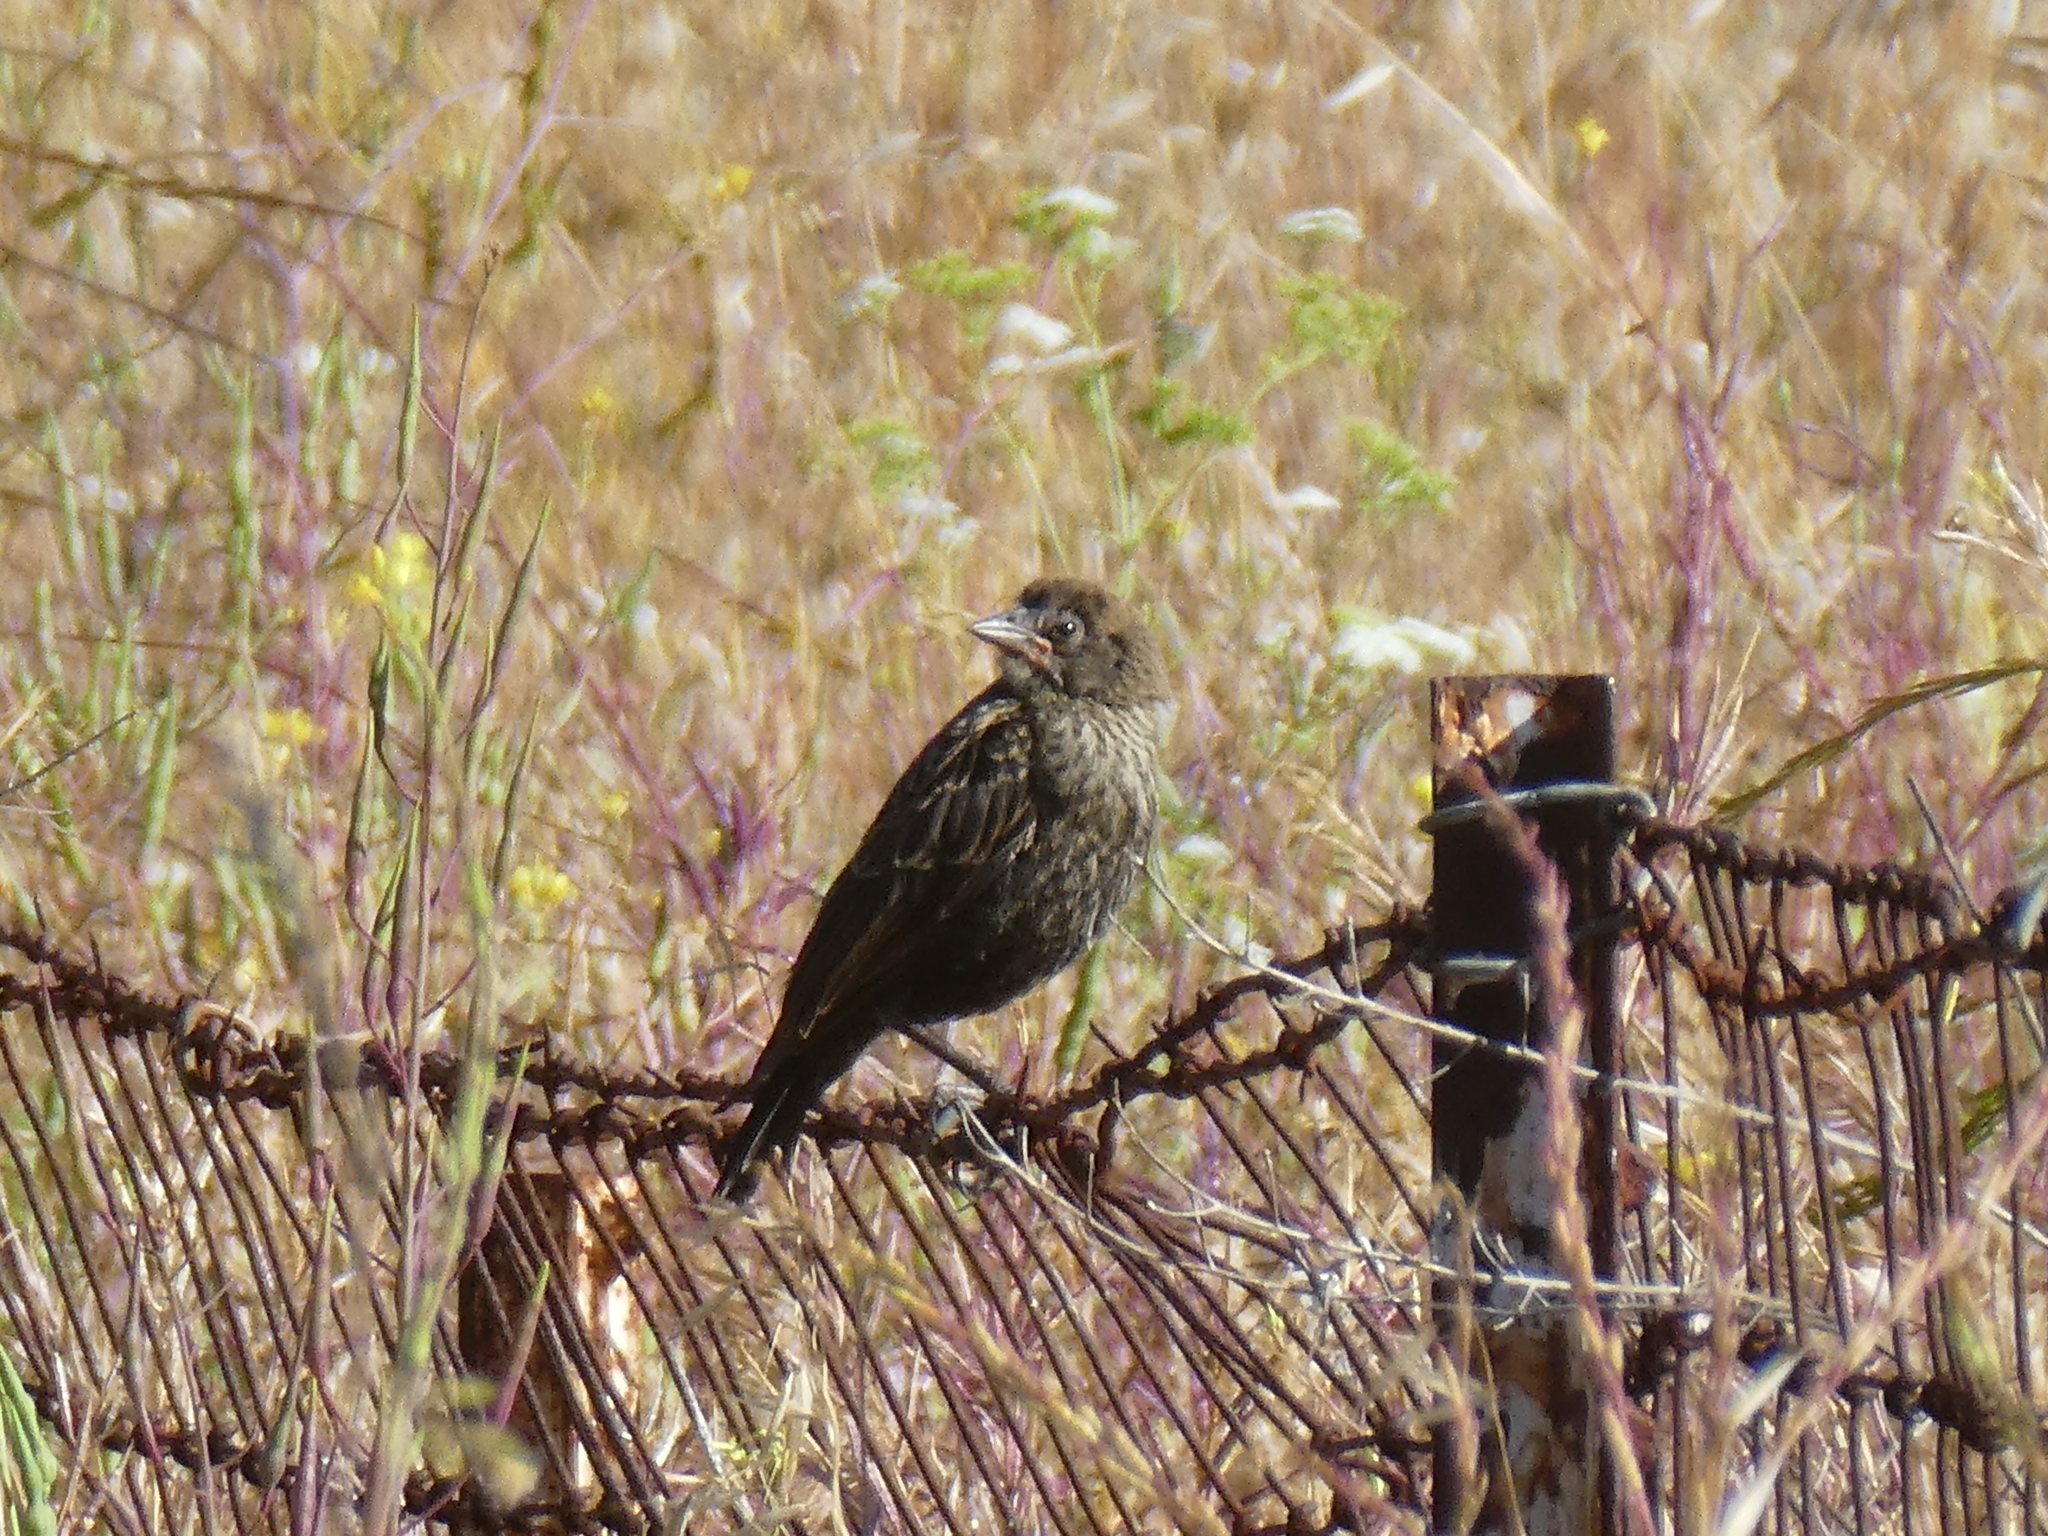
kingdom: Animalia
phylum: Chordata
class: Aves
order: Passeriformes
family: Icteridae
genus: Agelaius
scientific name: Agelaius phoeniceus
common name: Red-winged blackbird
